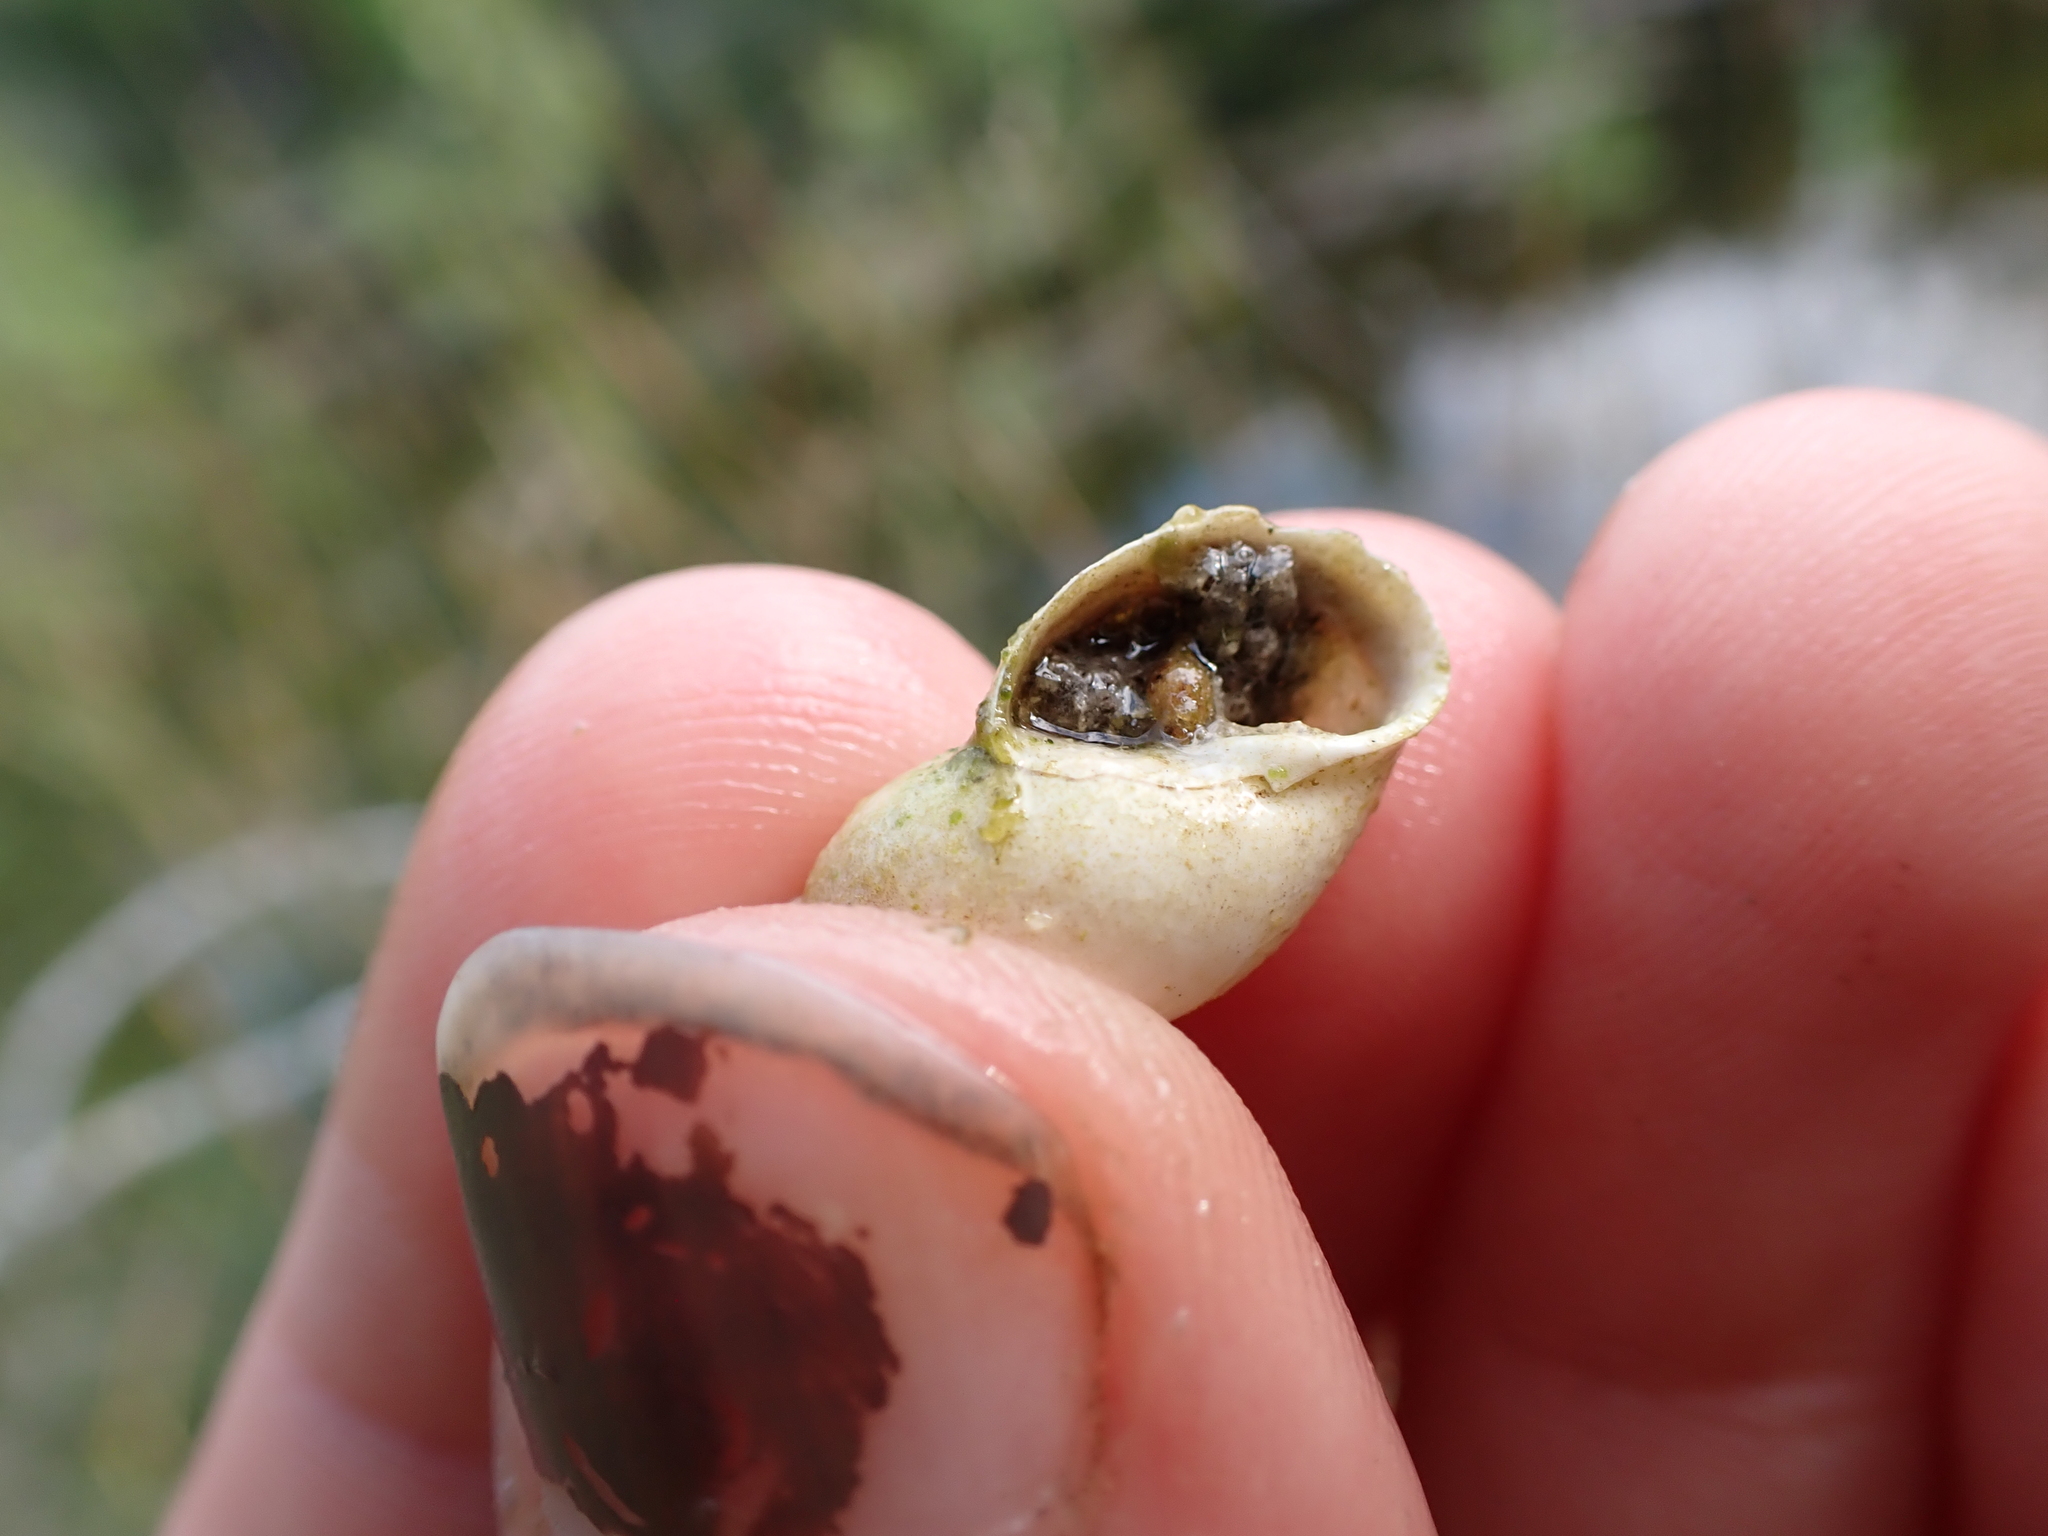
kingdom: Animalia
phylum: Mollusca
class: Gastropoda
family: Lymnaeidae
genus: Lymnaea
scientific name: Lymnaea stagnalis
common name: Great pond snail
